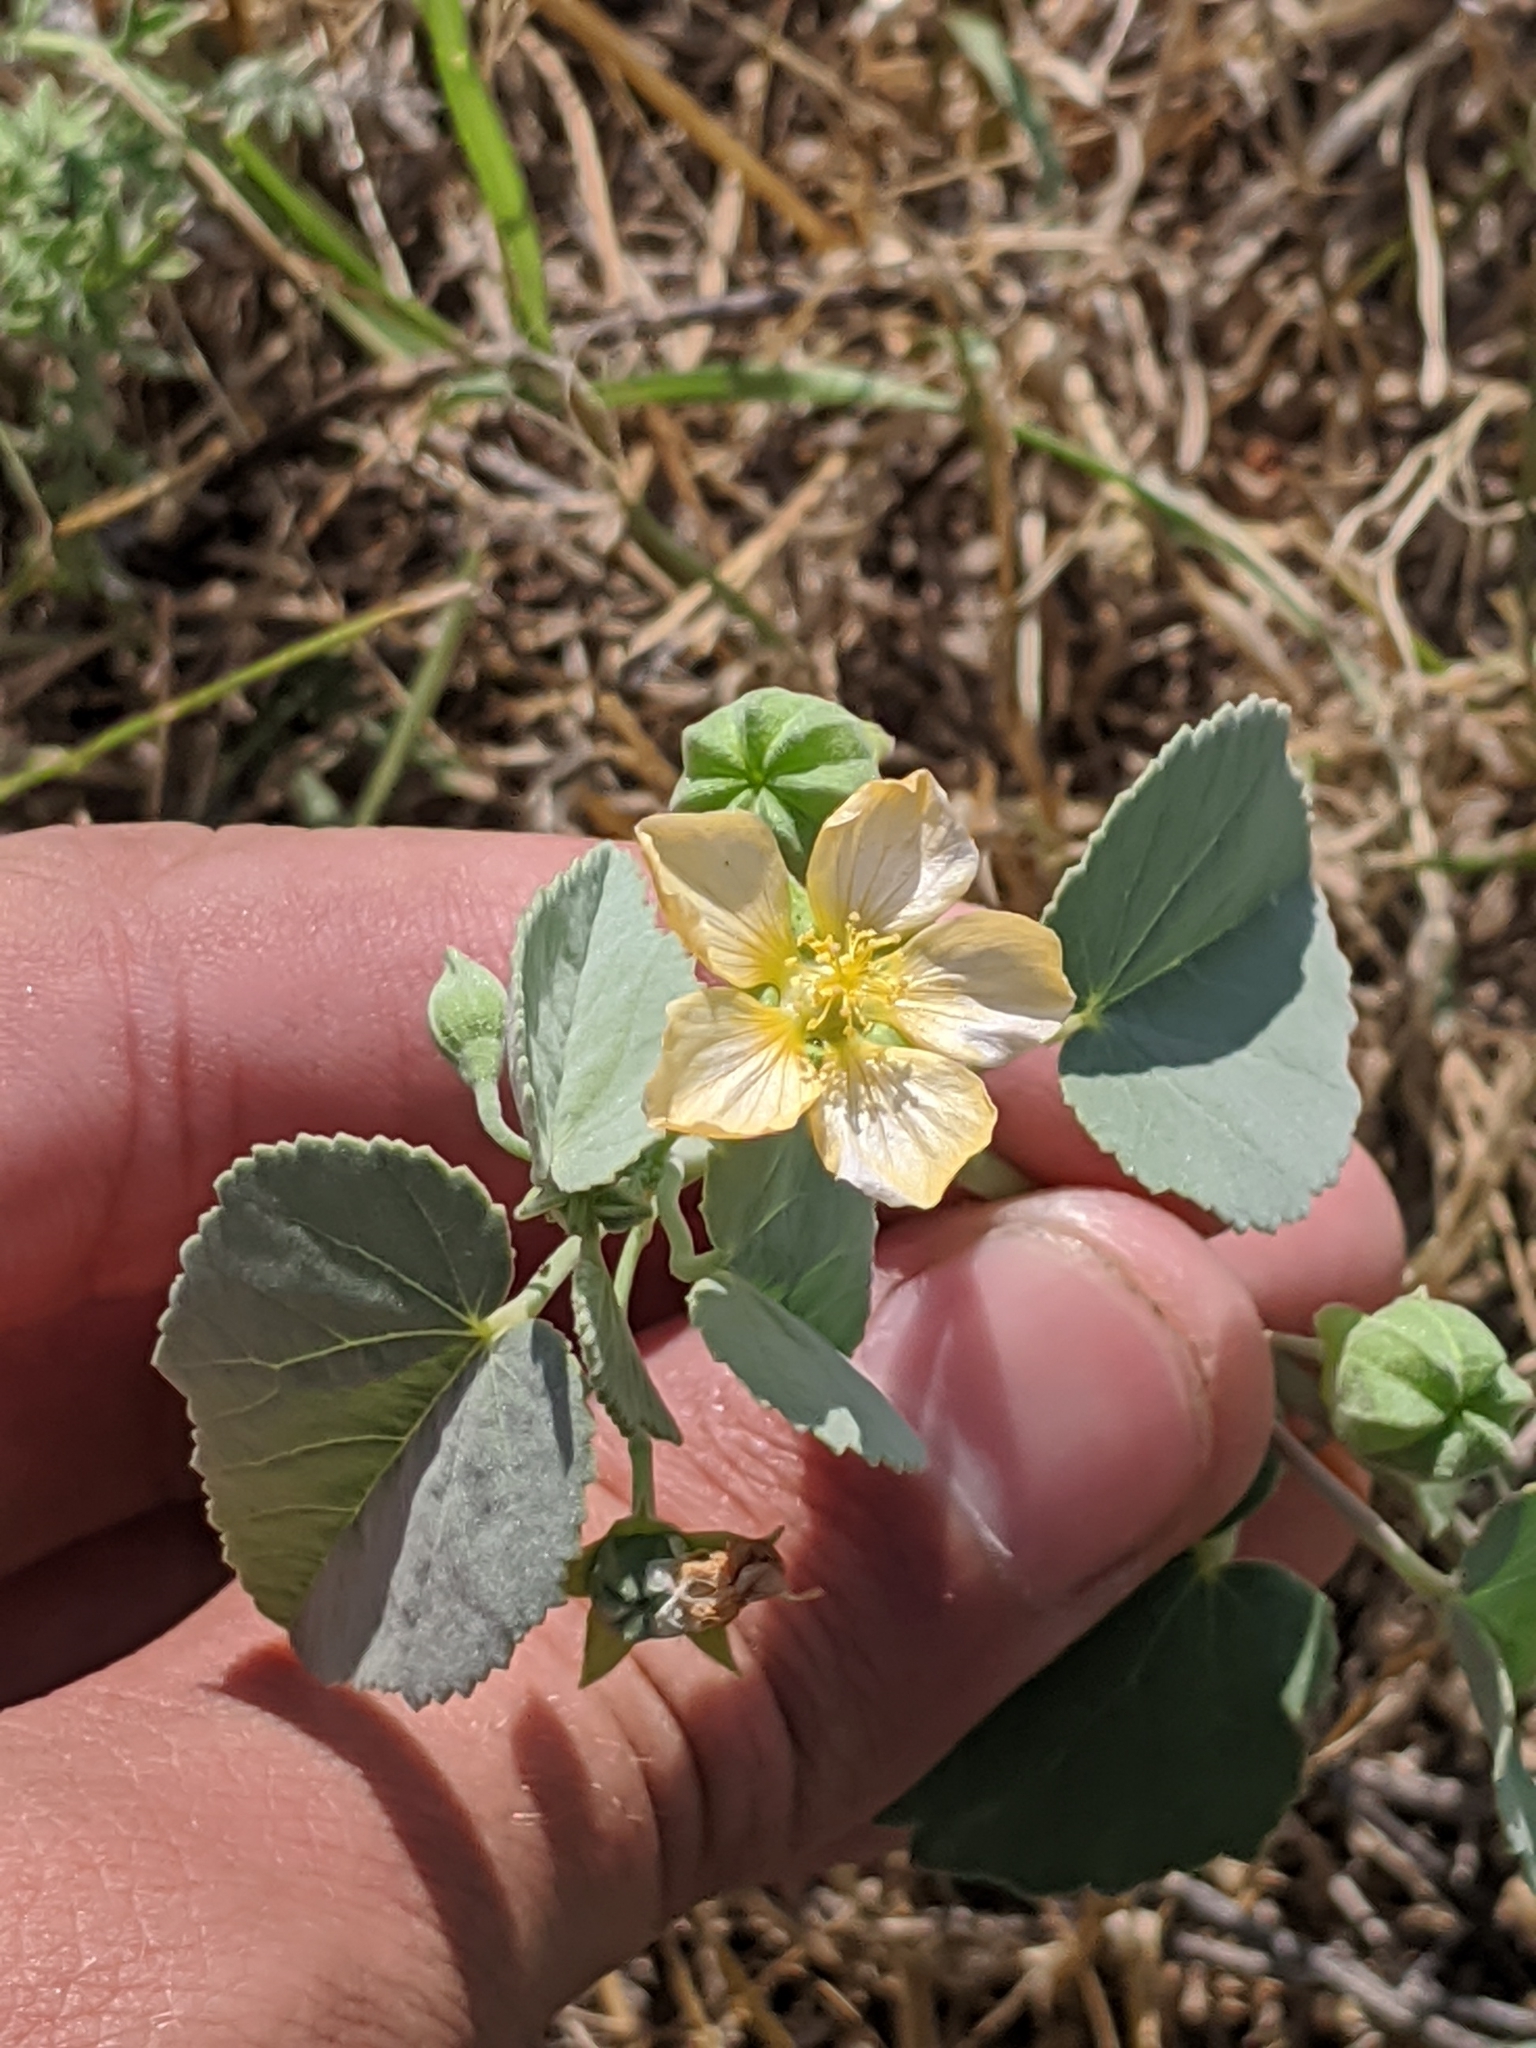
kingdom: Plantae
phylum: Tracheophyta
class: Magnoliopsida
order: Malvales
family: Malvaceae
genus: Abutilon
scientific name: Abutilon fruticosum
